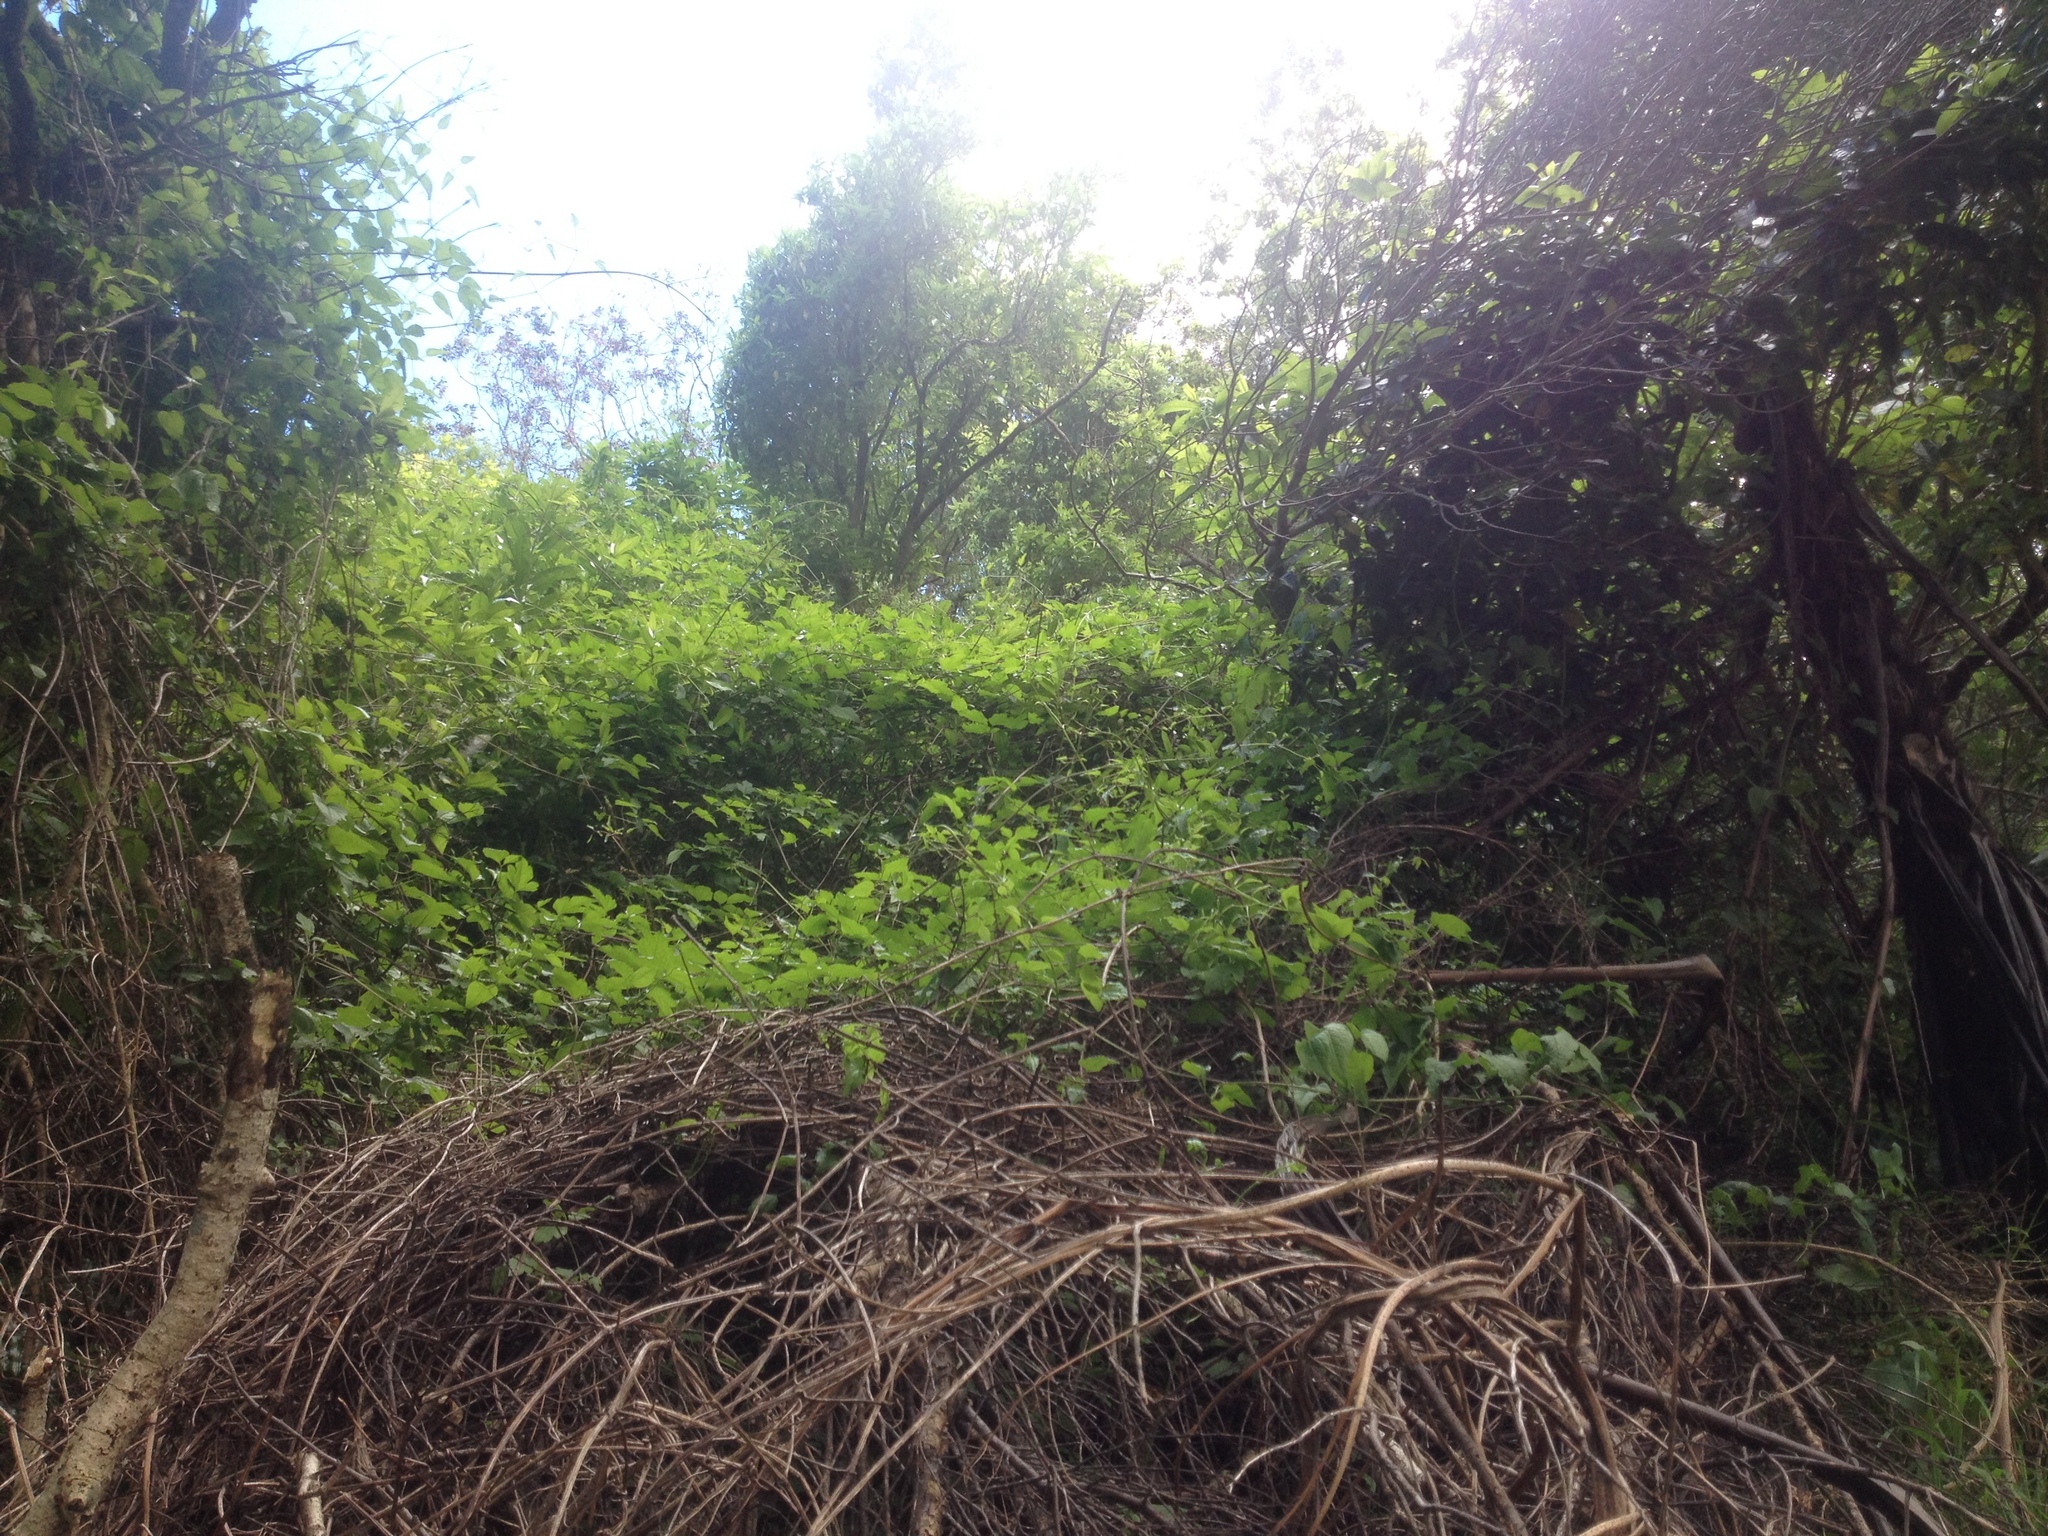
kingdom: Plantae
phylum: Tracheophyta
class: Magnoliopsida
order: Ranunculales
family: Ranunculaceae
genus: Clematis
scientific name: Clematis vitalba
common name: Evergreen clematis
